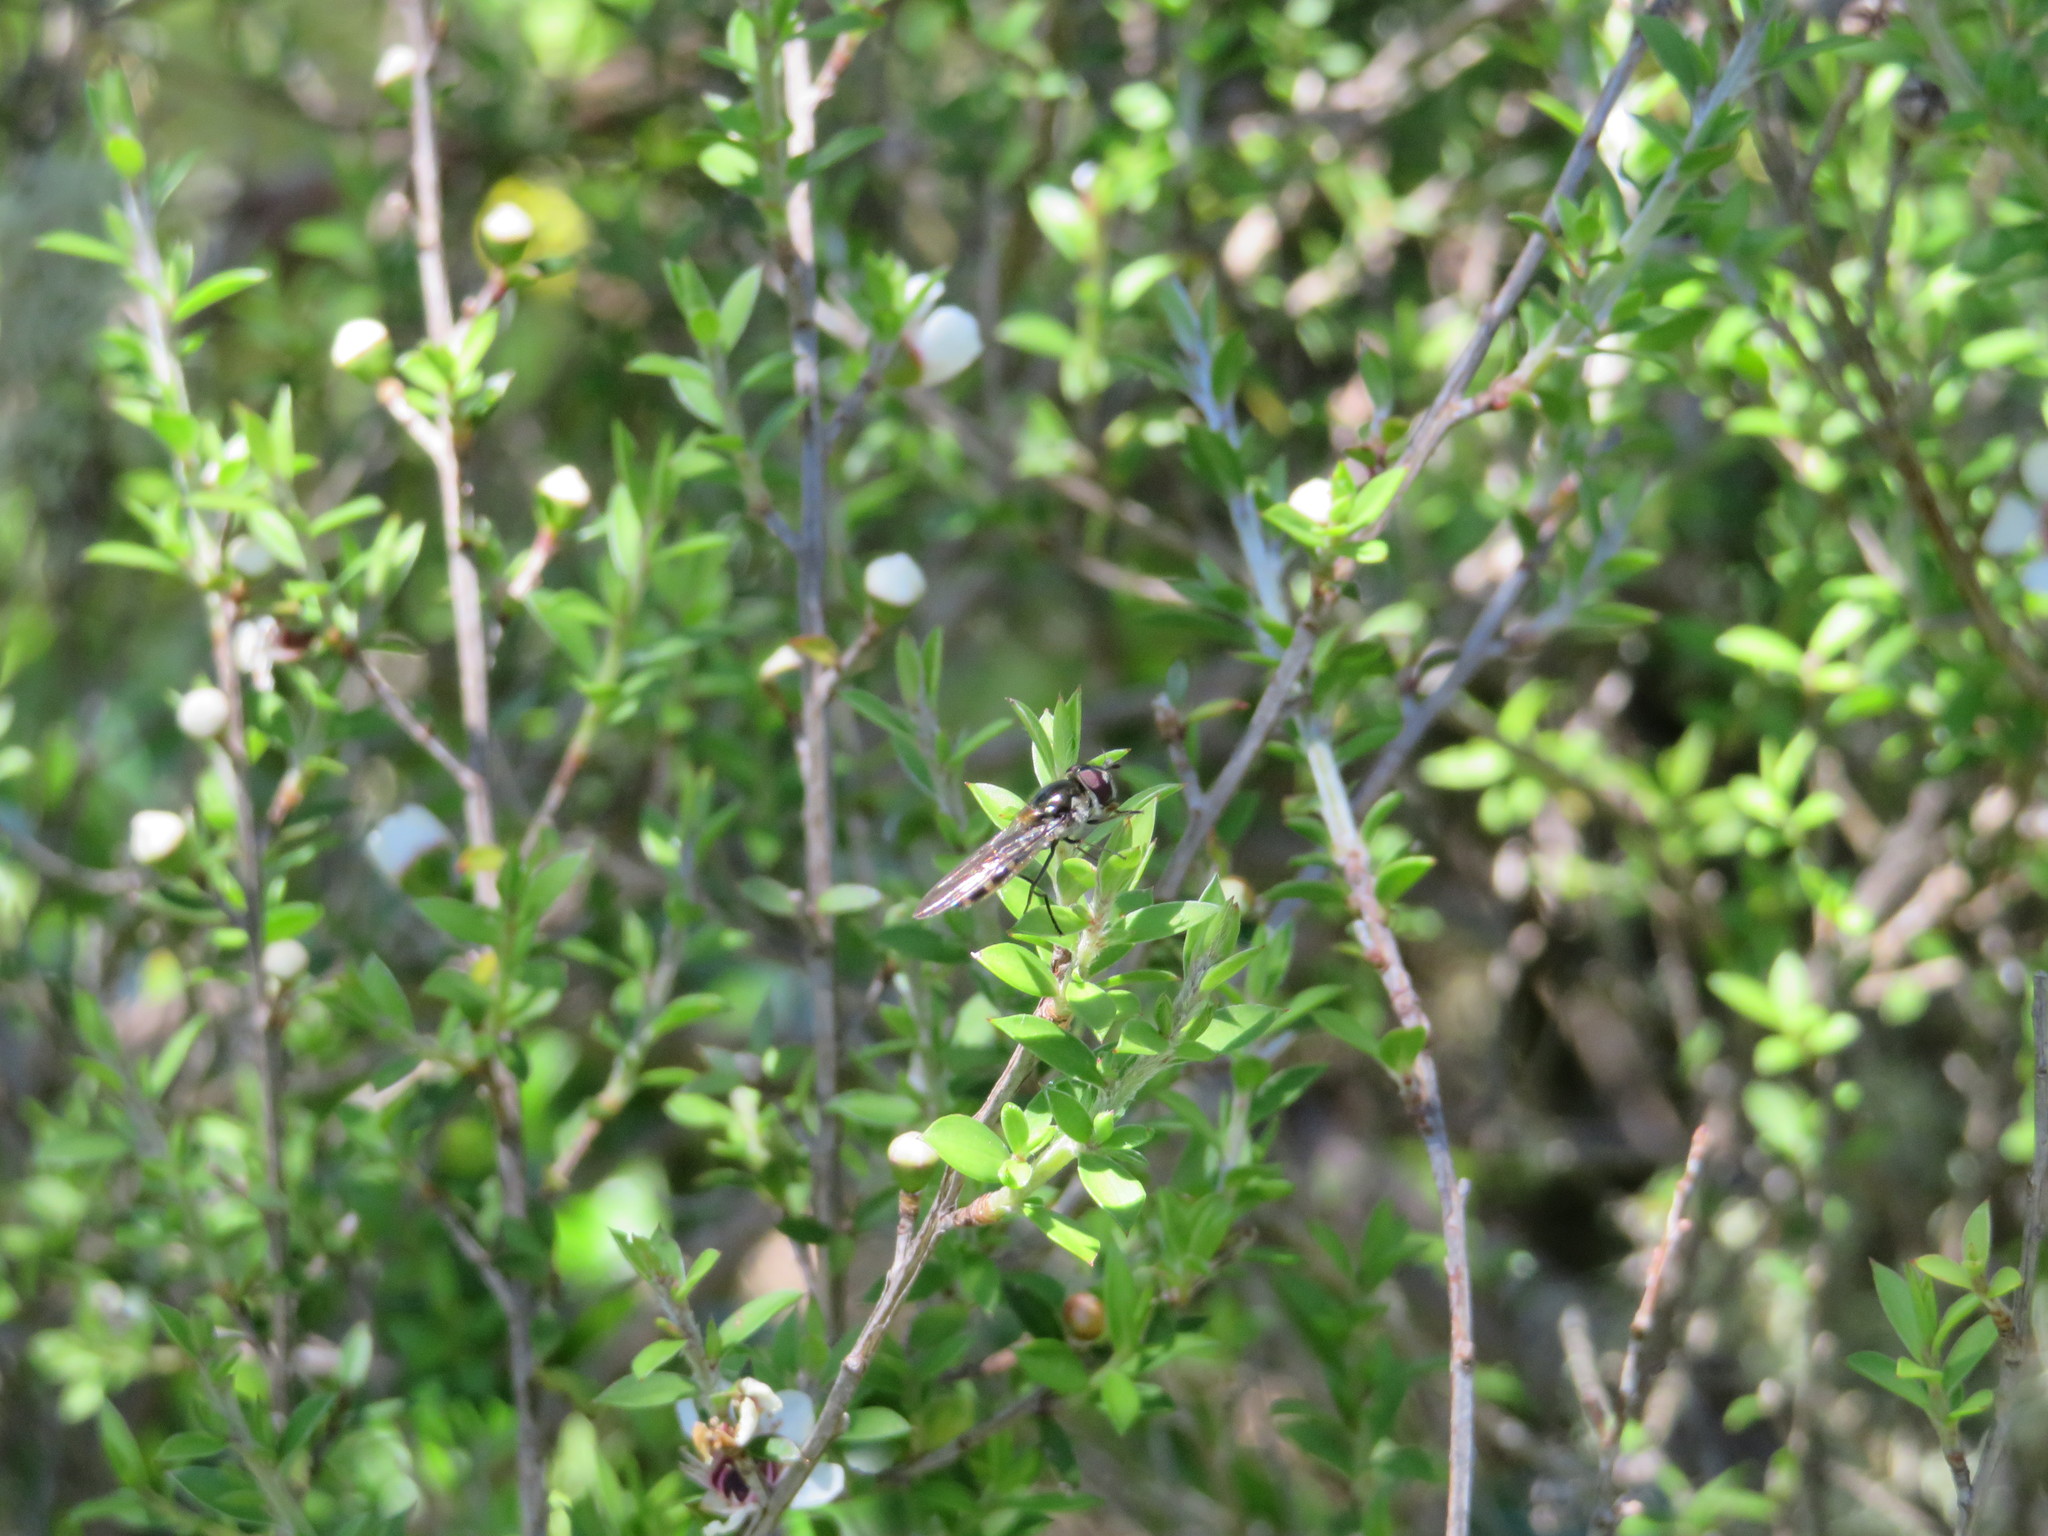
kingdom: Animalia
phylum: Arthropoda
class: Insecta
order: Diptera
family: Syrphidae
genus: Melangyna
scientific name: Melangyna novaezelandiae
